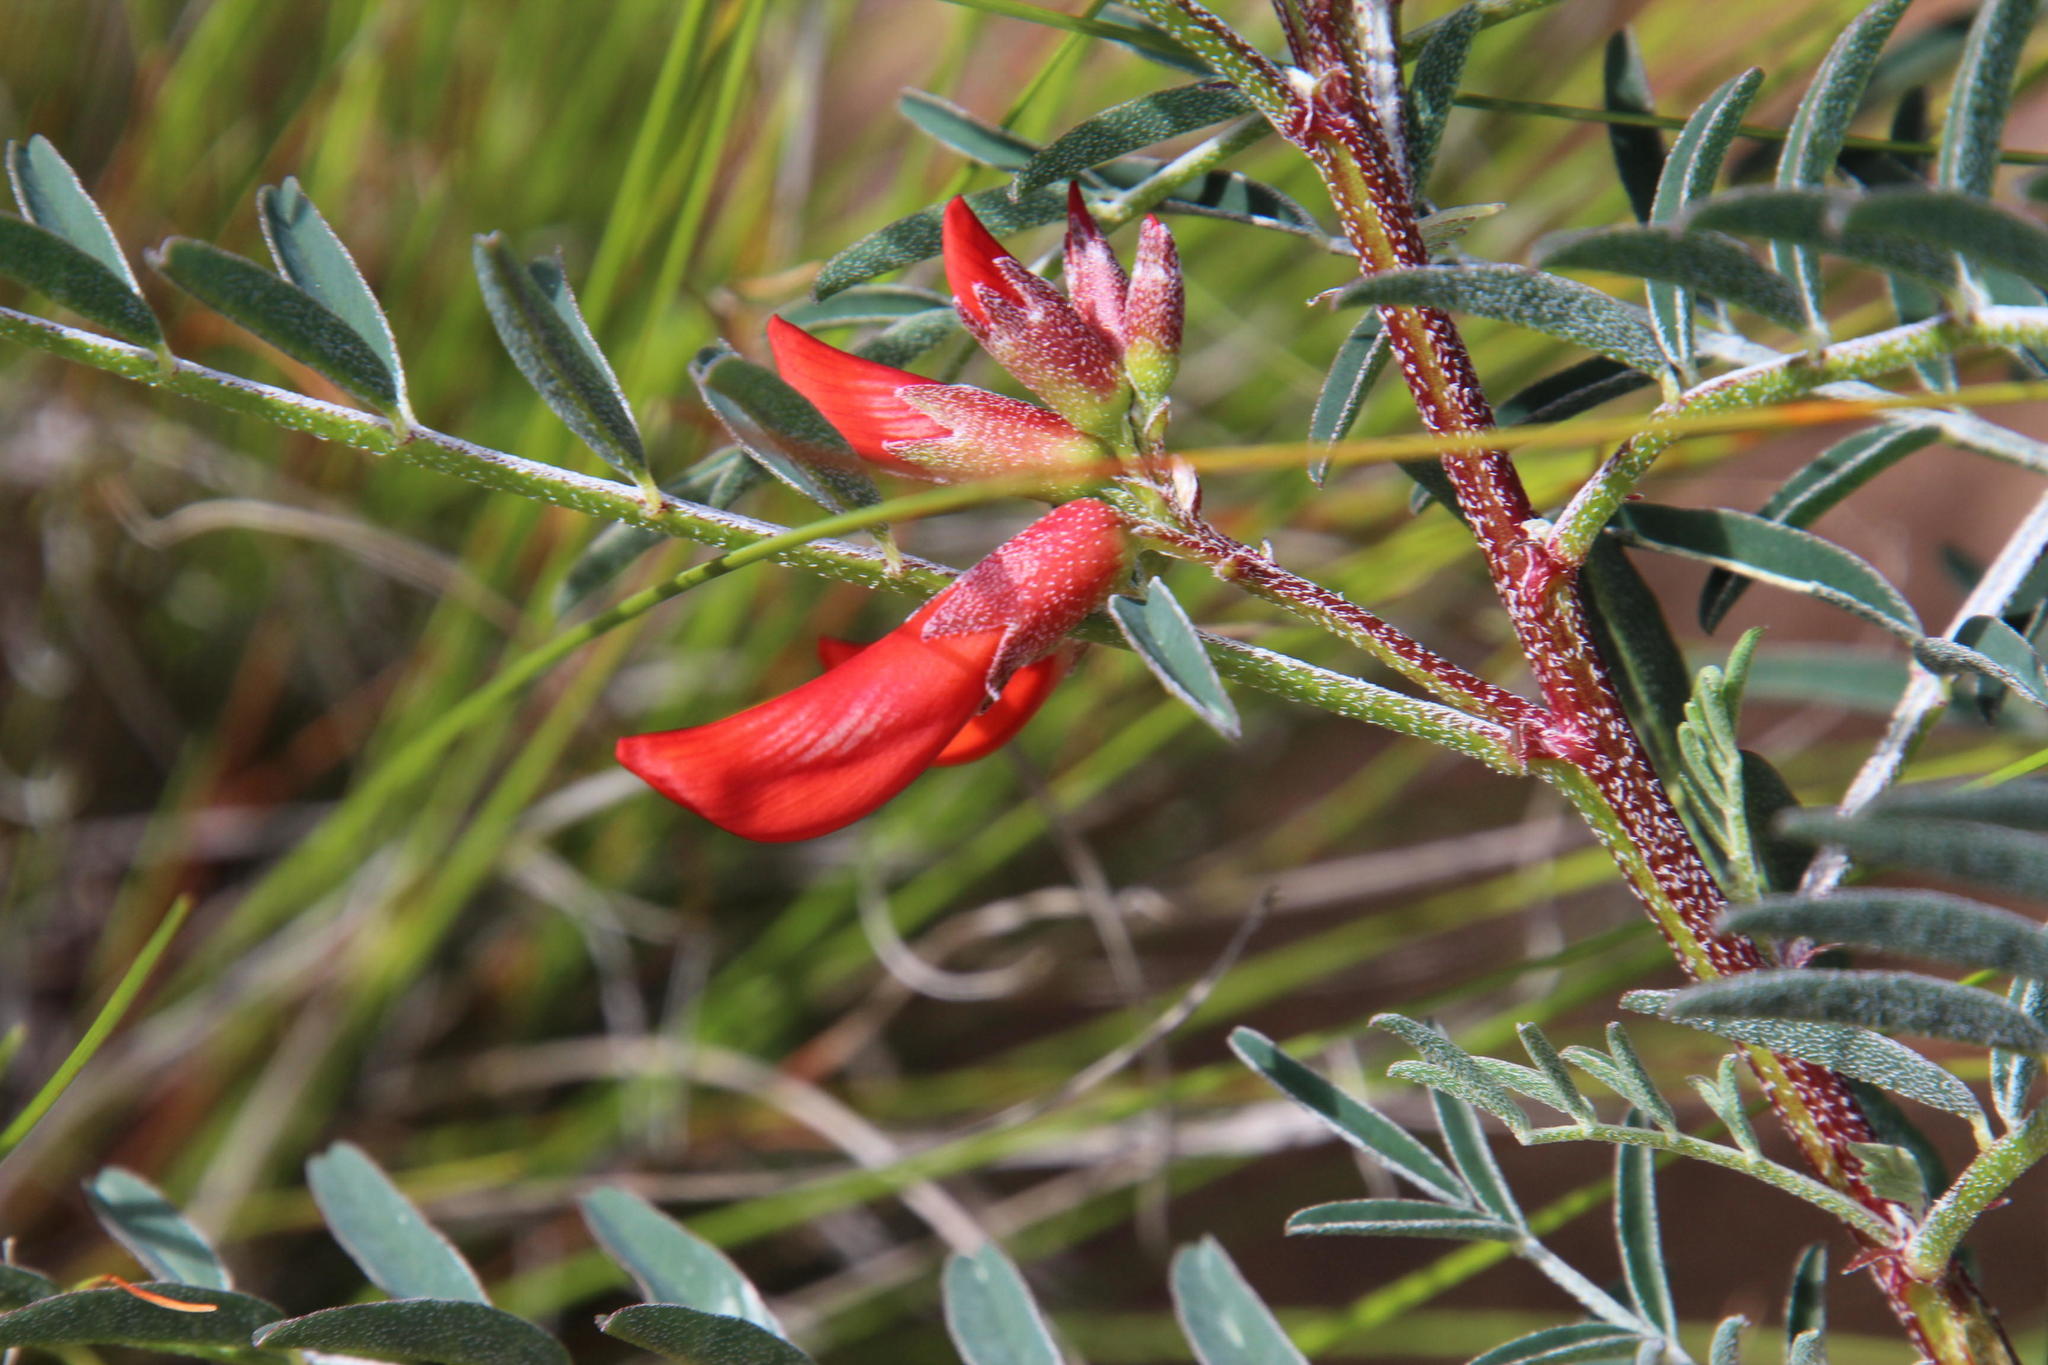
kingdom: Plantae
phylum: Tracheophyta
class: Magnoliopsida
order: Fabales
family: Fabaceae
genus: Lessertia
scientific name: Lessertia frutescens
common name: Balloon-pea
